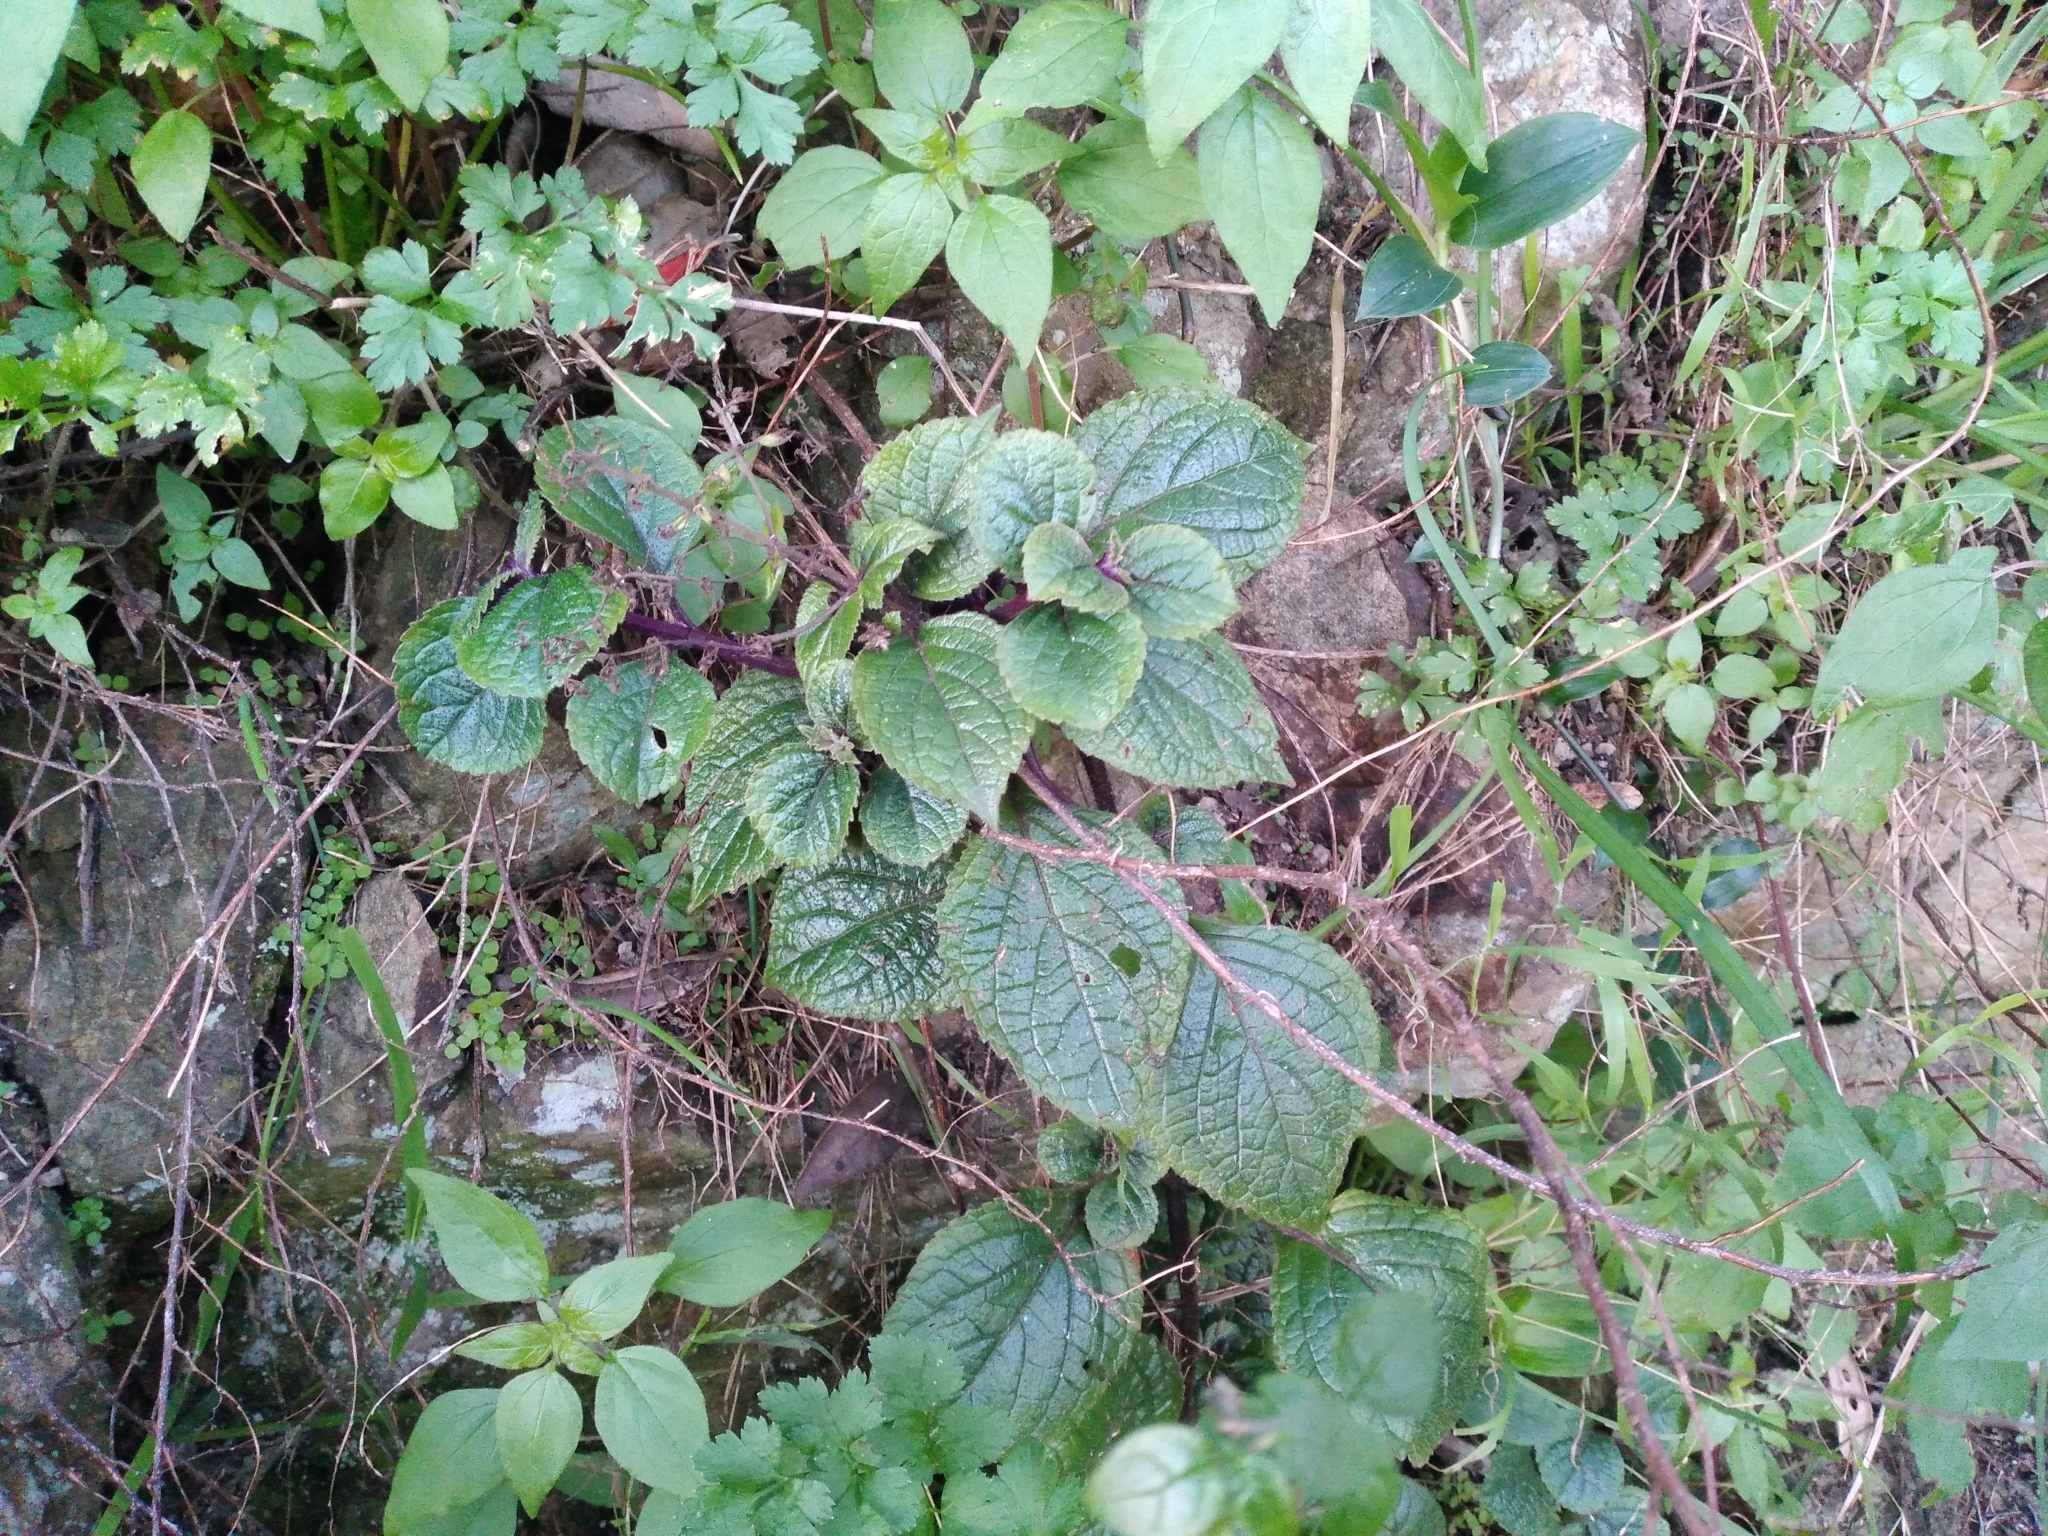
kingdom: Plantae
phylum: Tracheophyta
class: Magnoliopsida
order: Lamiales
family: Lamiaceae
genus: Plectranthus
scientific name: Plectranthus ciliatus
